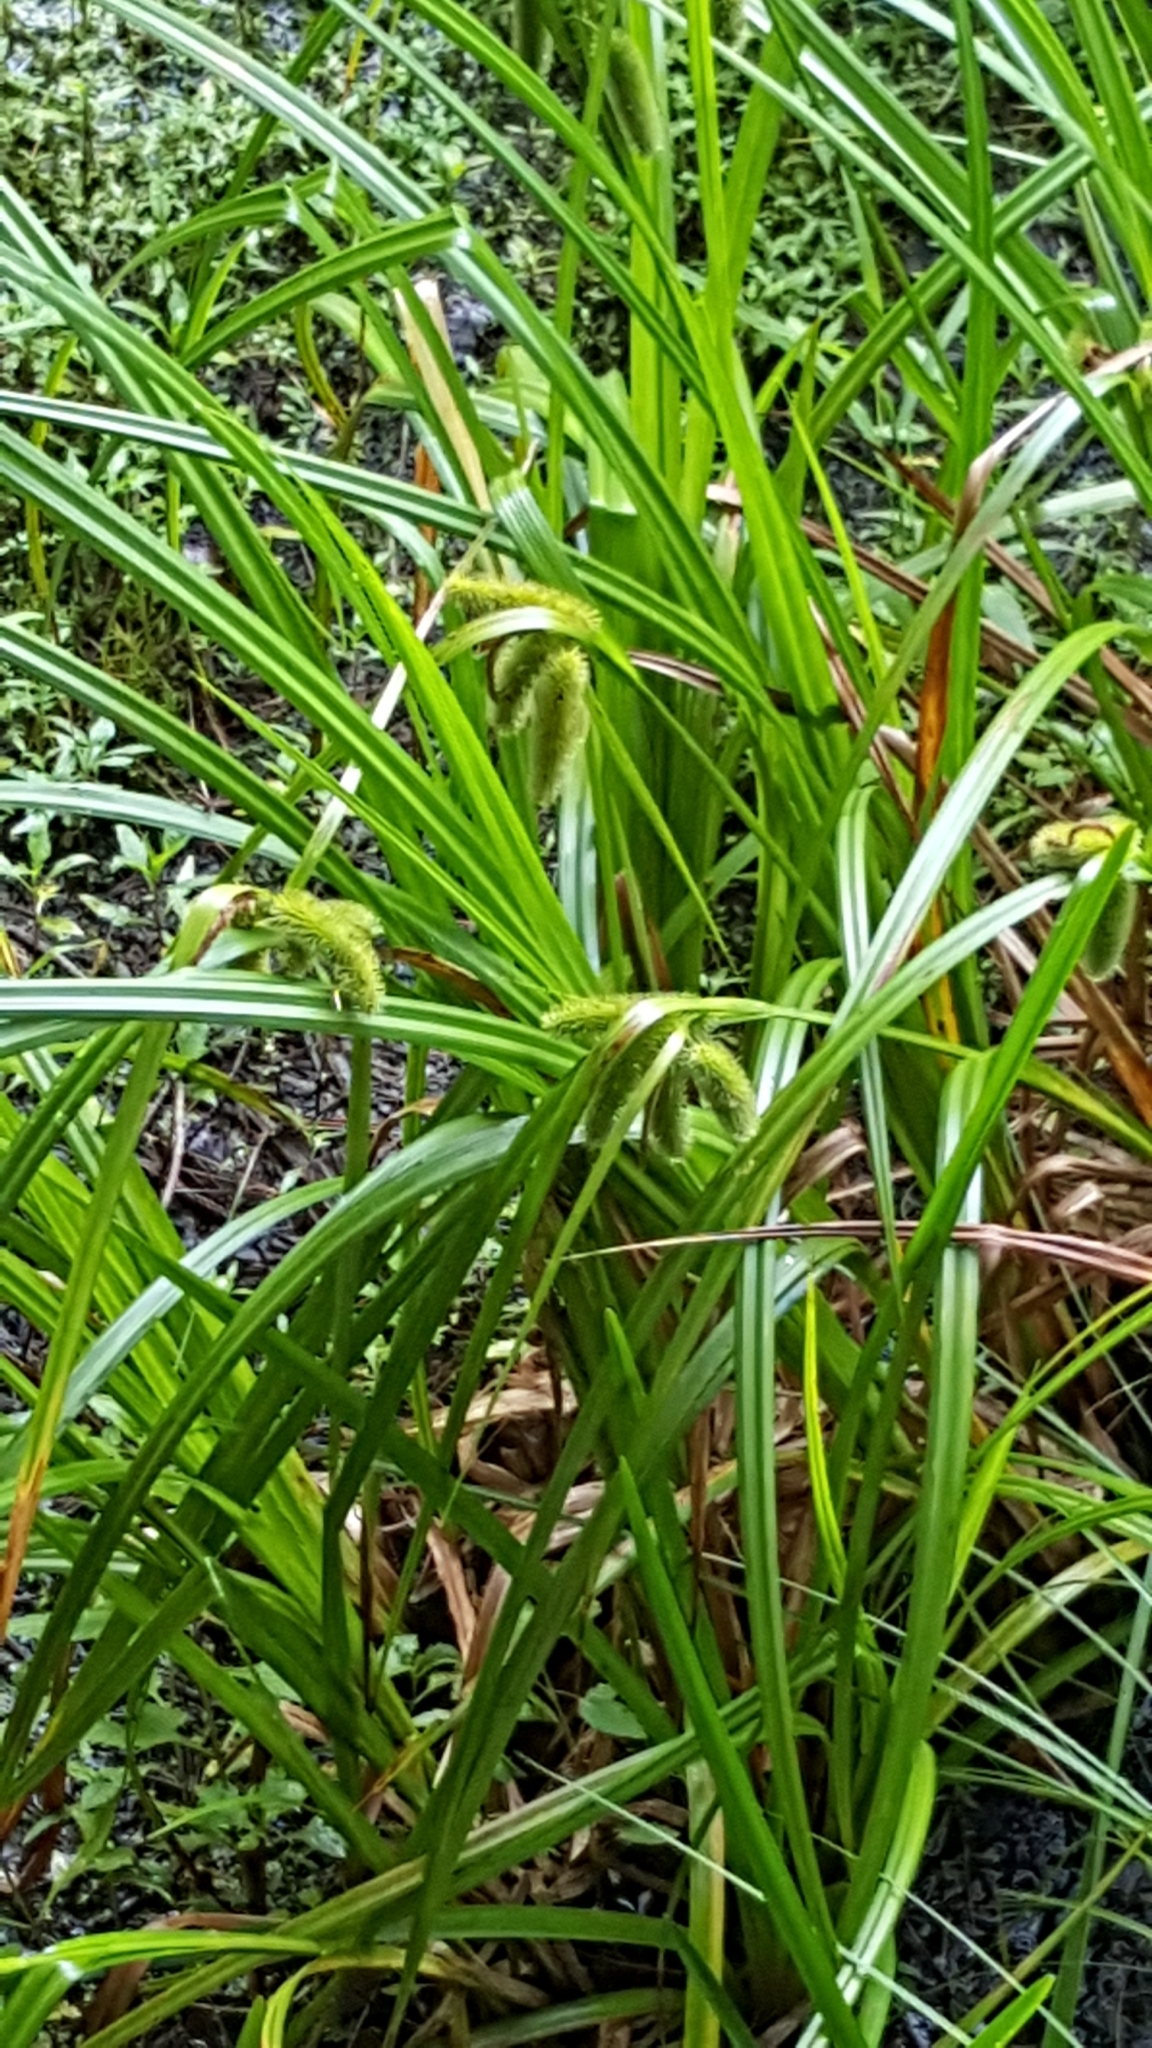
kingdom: Plantae
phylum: Tracheophyta
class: Liliopsida
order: Poales
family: Cyperaceae
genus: Carex
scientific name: Carex comosa
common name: Bristly sedge
